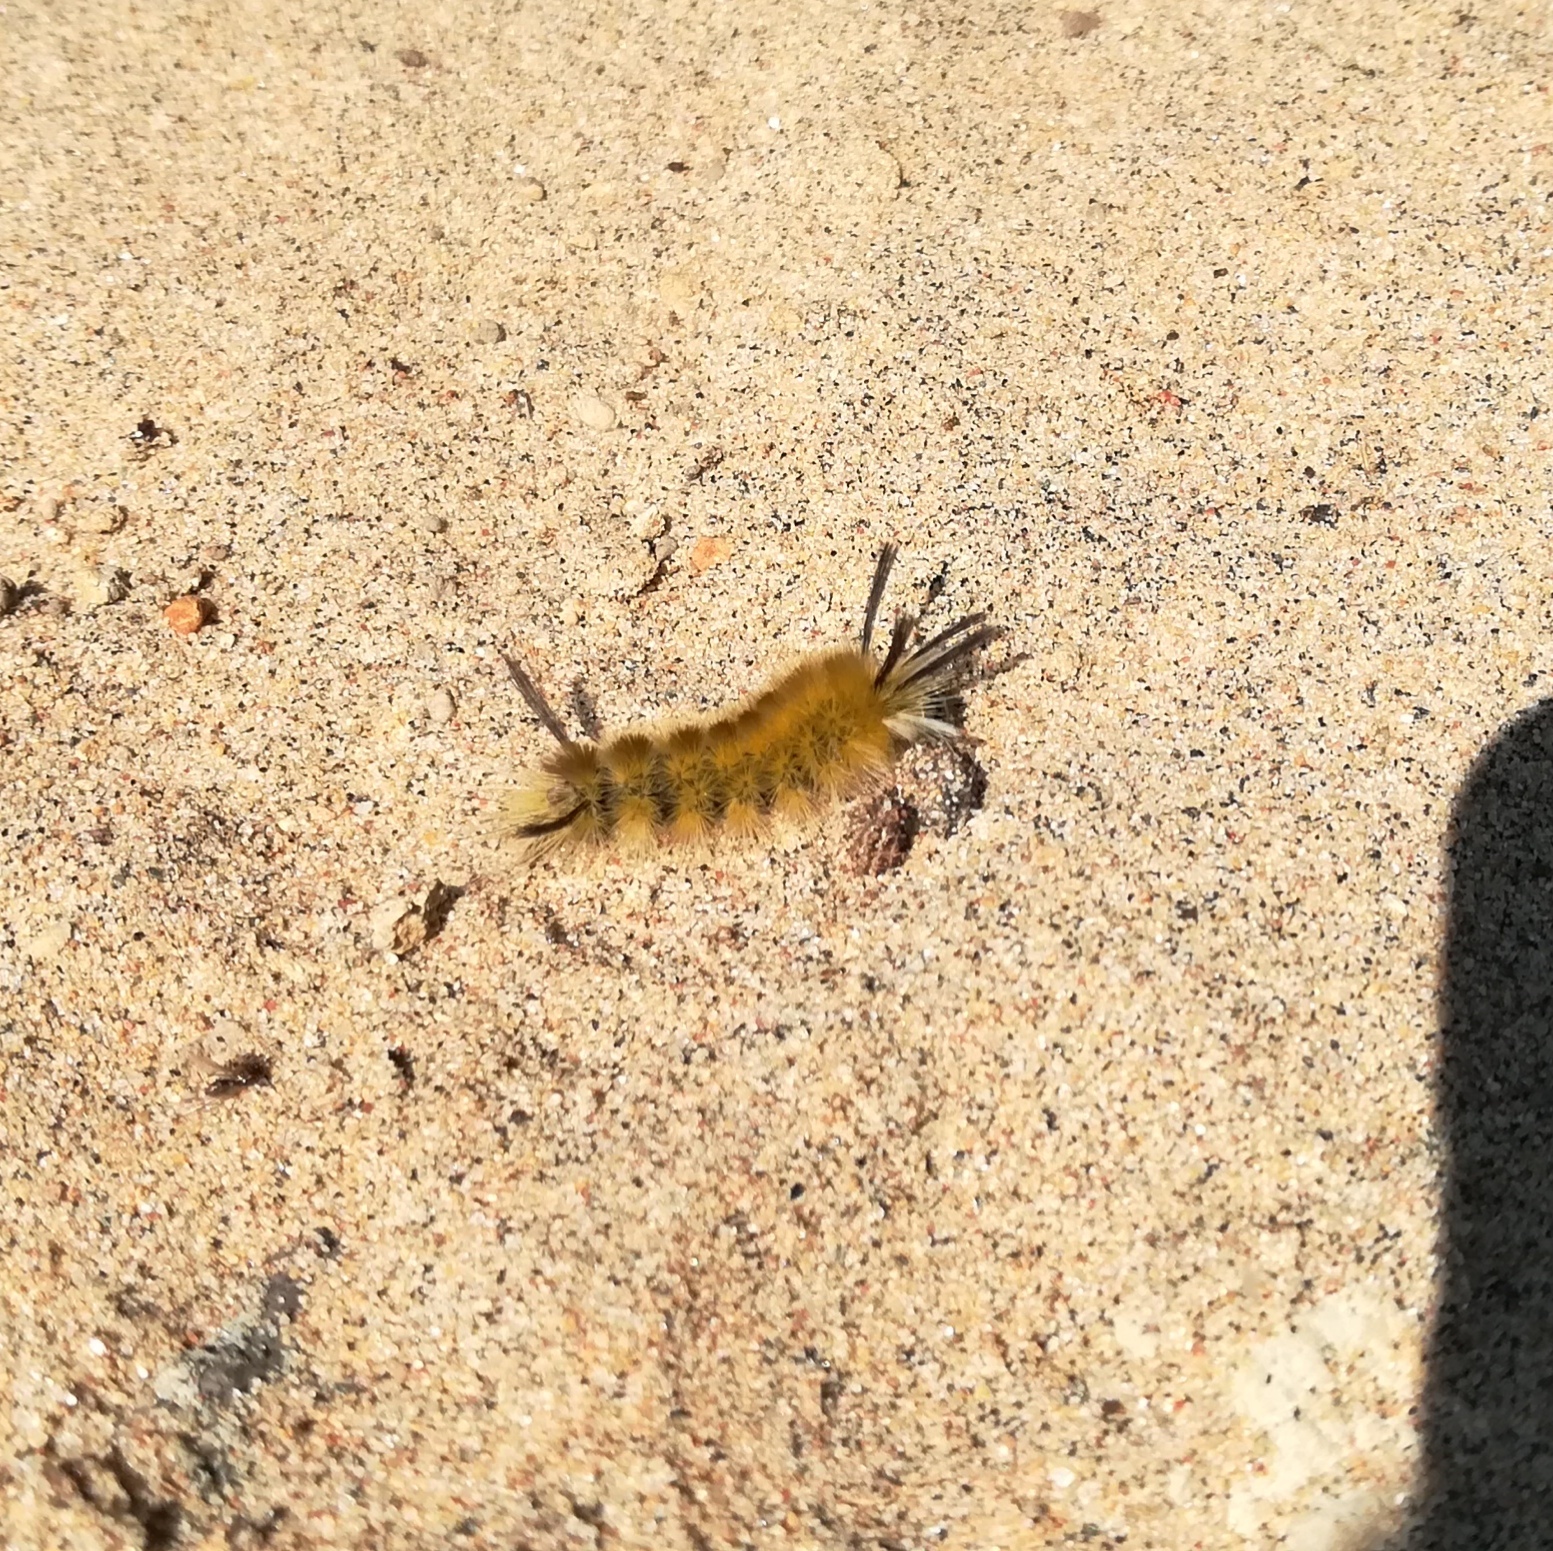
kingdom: Animalia
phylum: Arthropoda
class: Insecta
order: Lepidoptera
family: Erebidae
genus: Halysidota
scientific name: Halysidota tessellaris
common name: Banded tussock moth
